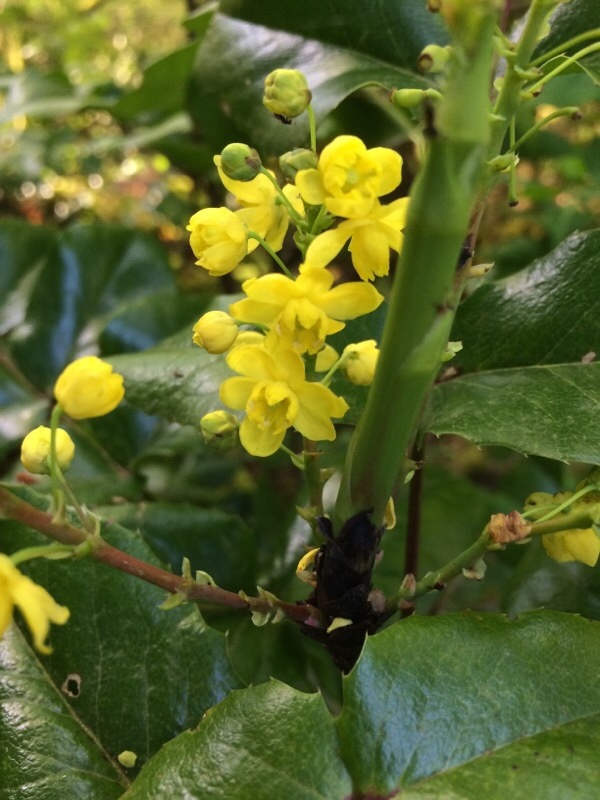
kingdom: Plantae
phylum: Tracheophyta
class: Magnoliopsida
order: Ranunculales
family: Berberidaceae
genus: Mahonia
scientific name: Mahonia aquifolium
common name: Oregon-grape
